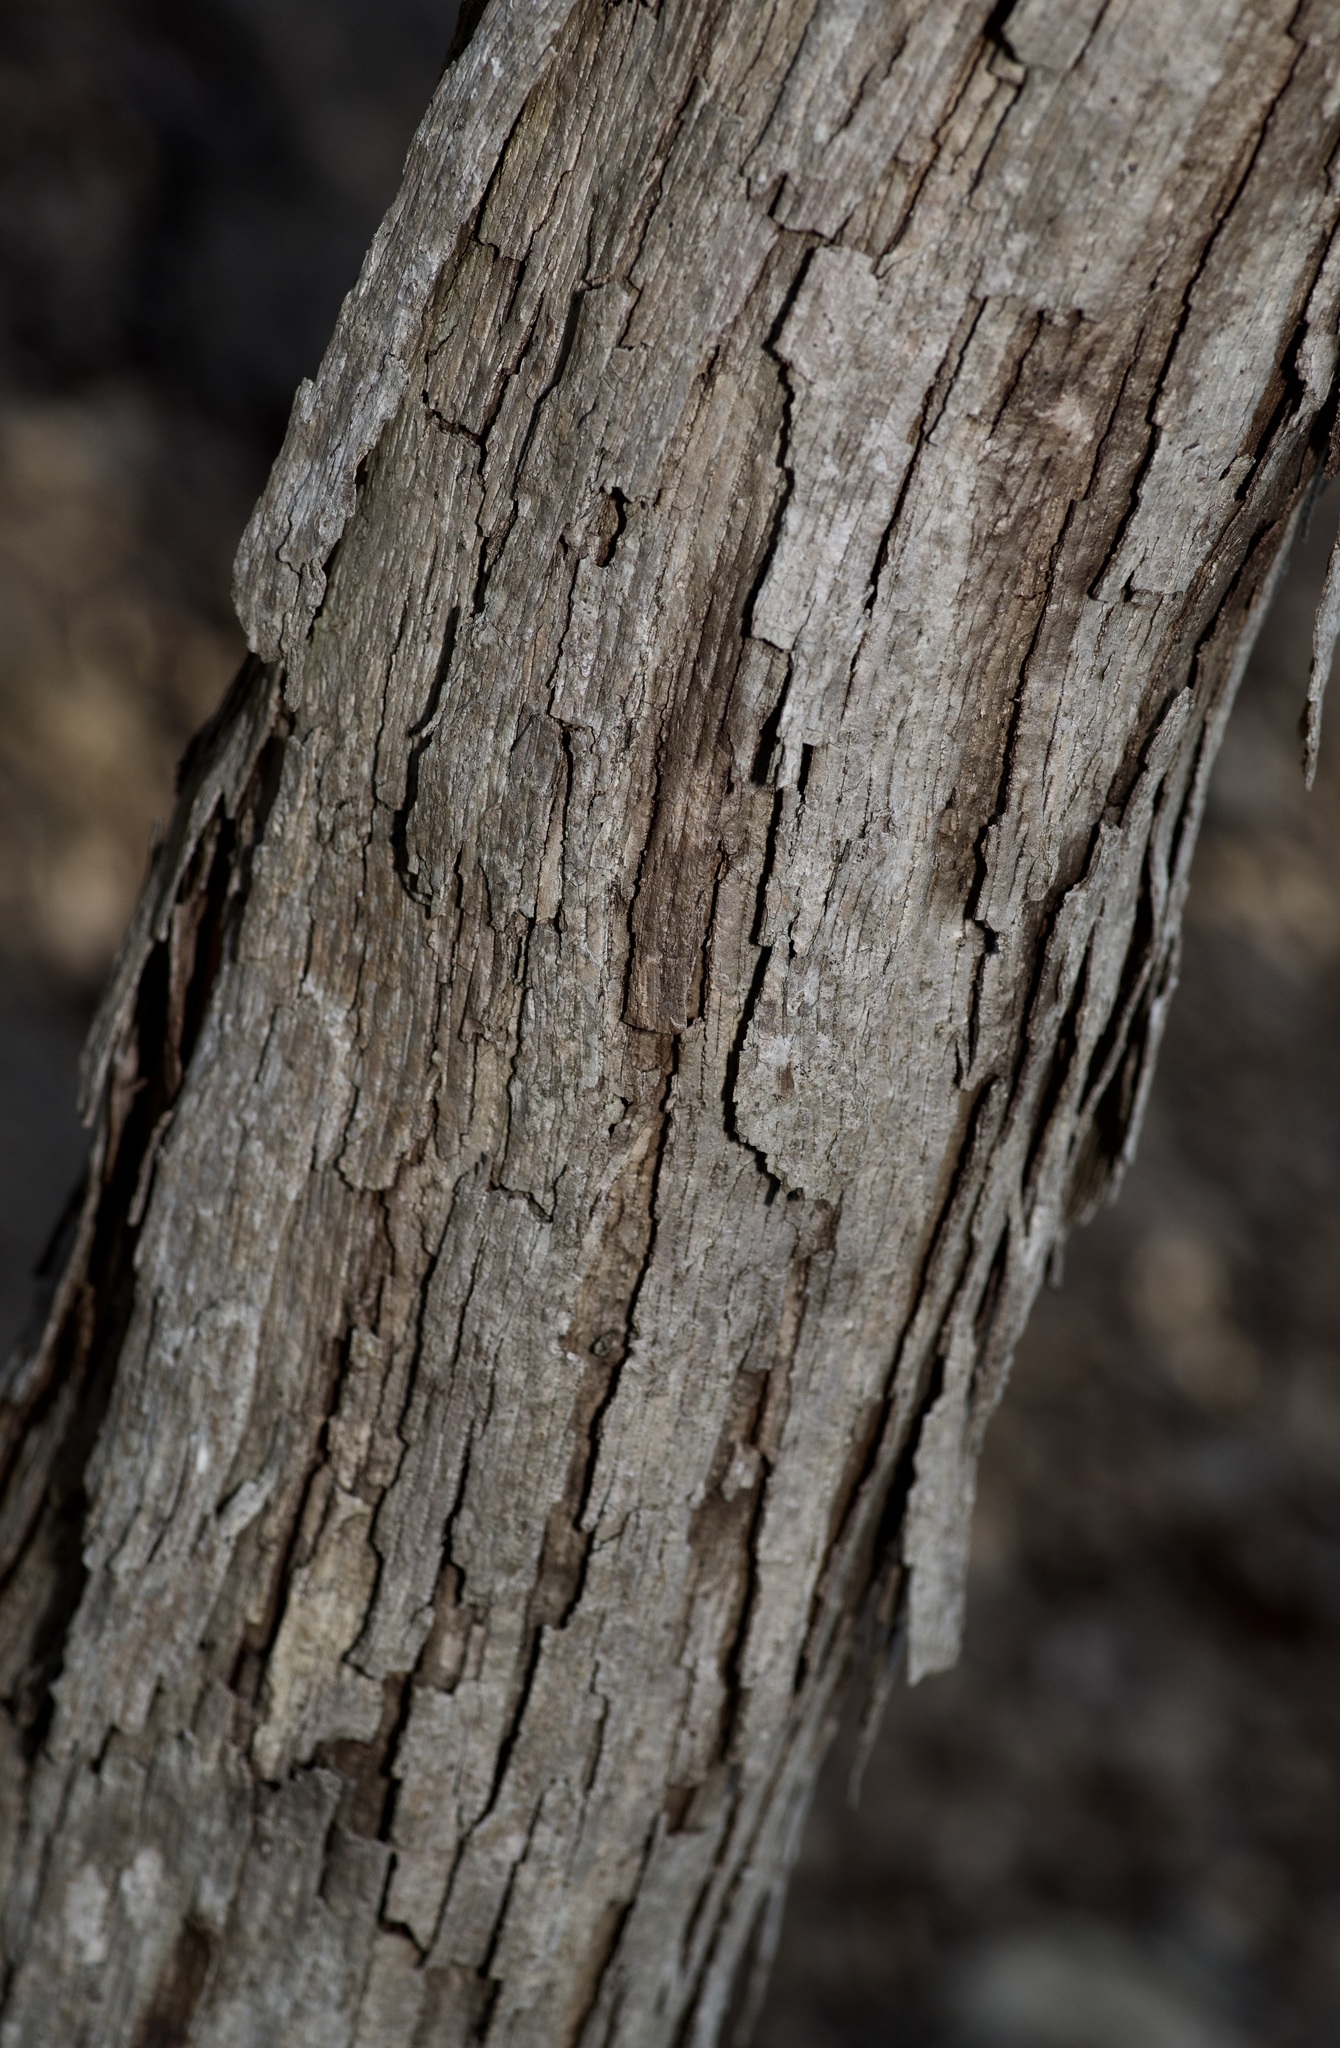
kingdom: Plantae
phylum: Tracheophyta
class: Magnoliopsida
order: Fagales
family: Fagaceae
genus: Quercus
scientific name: Quercus sinuata
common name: Durand oak
